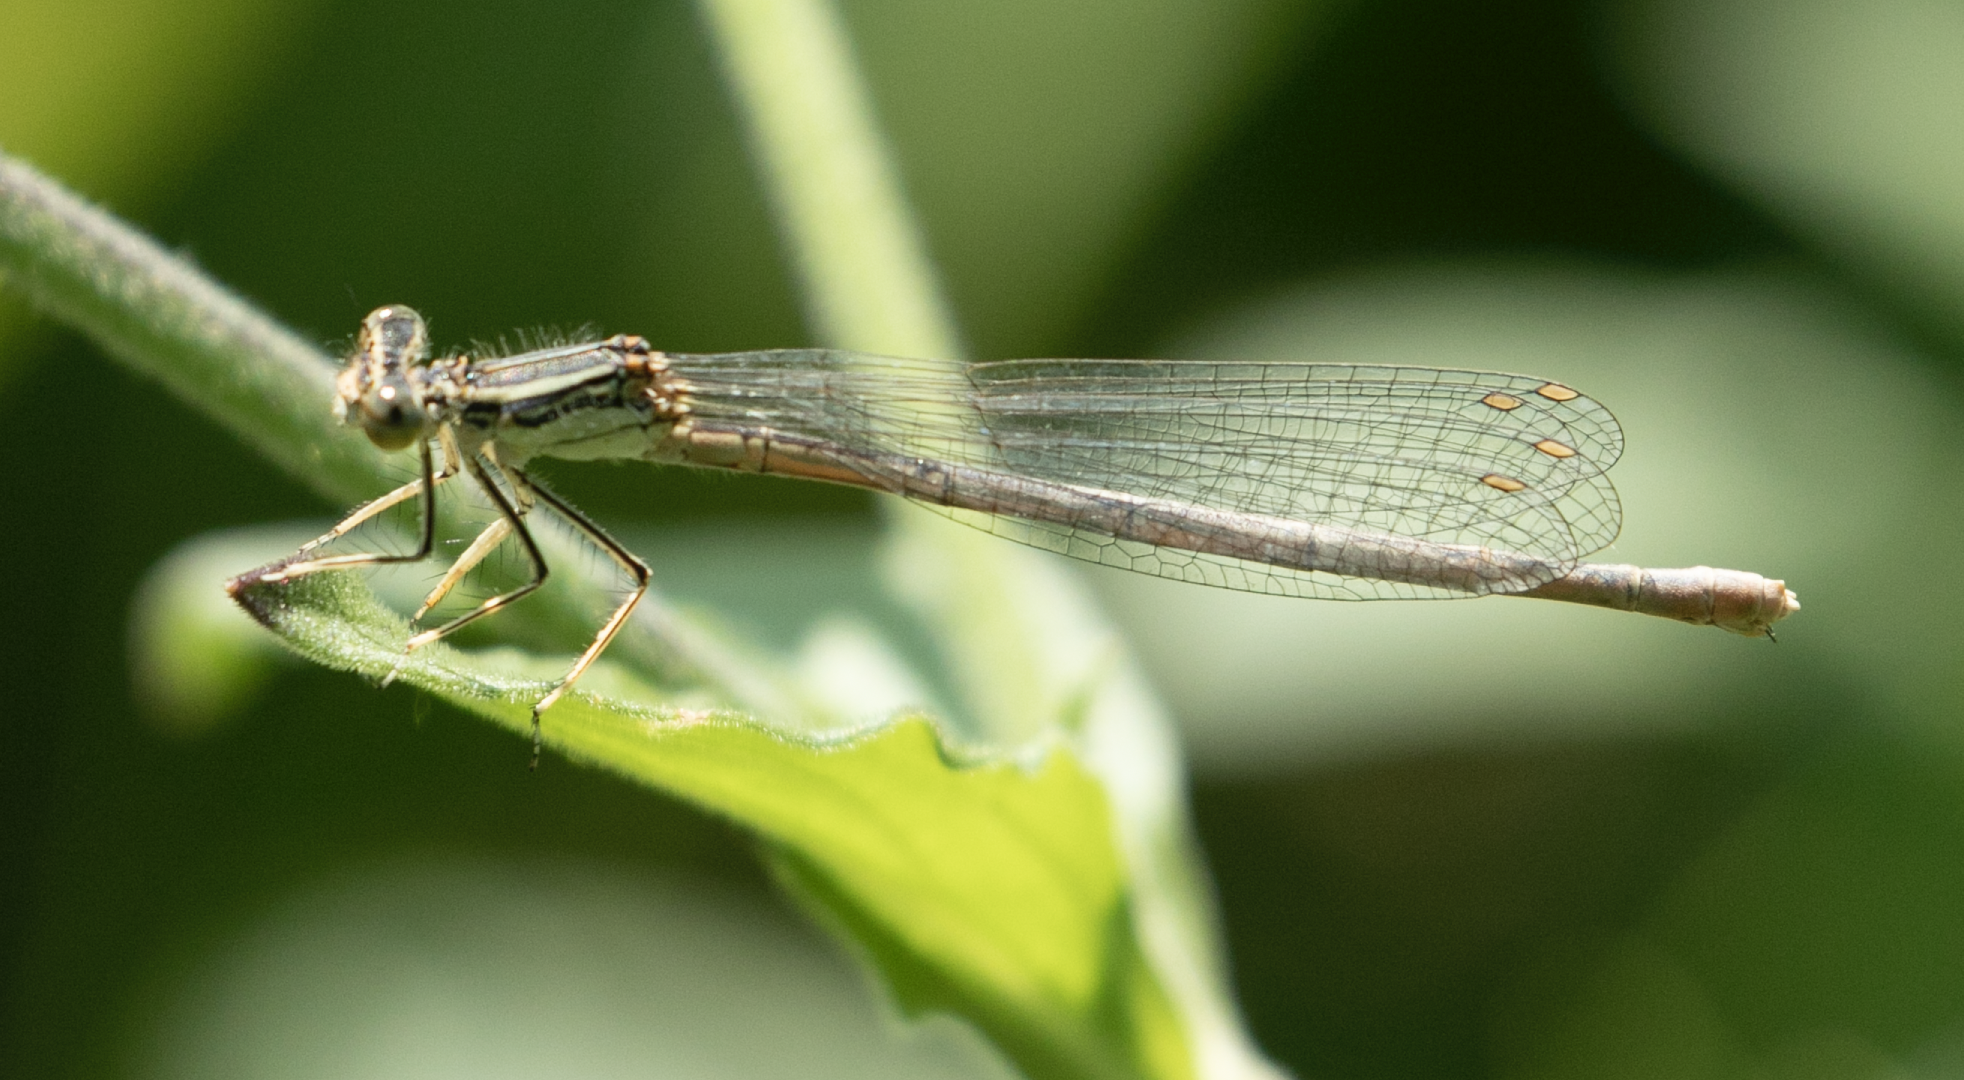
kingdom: Animalia
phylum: Arthropoda
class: Insecta
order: Odonata
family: Platycnemididae
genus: Platycnemis
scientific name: Platycnemis pennipes
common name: White-legged damselfly
